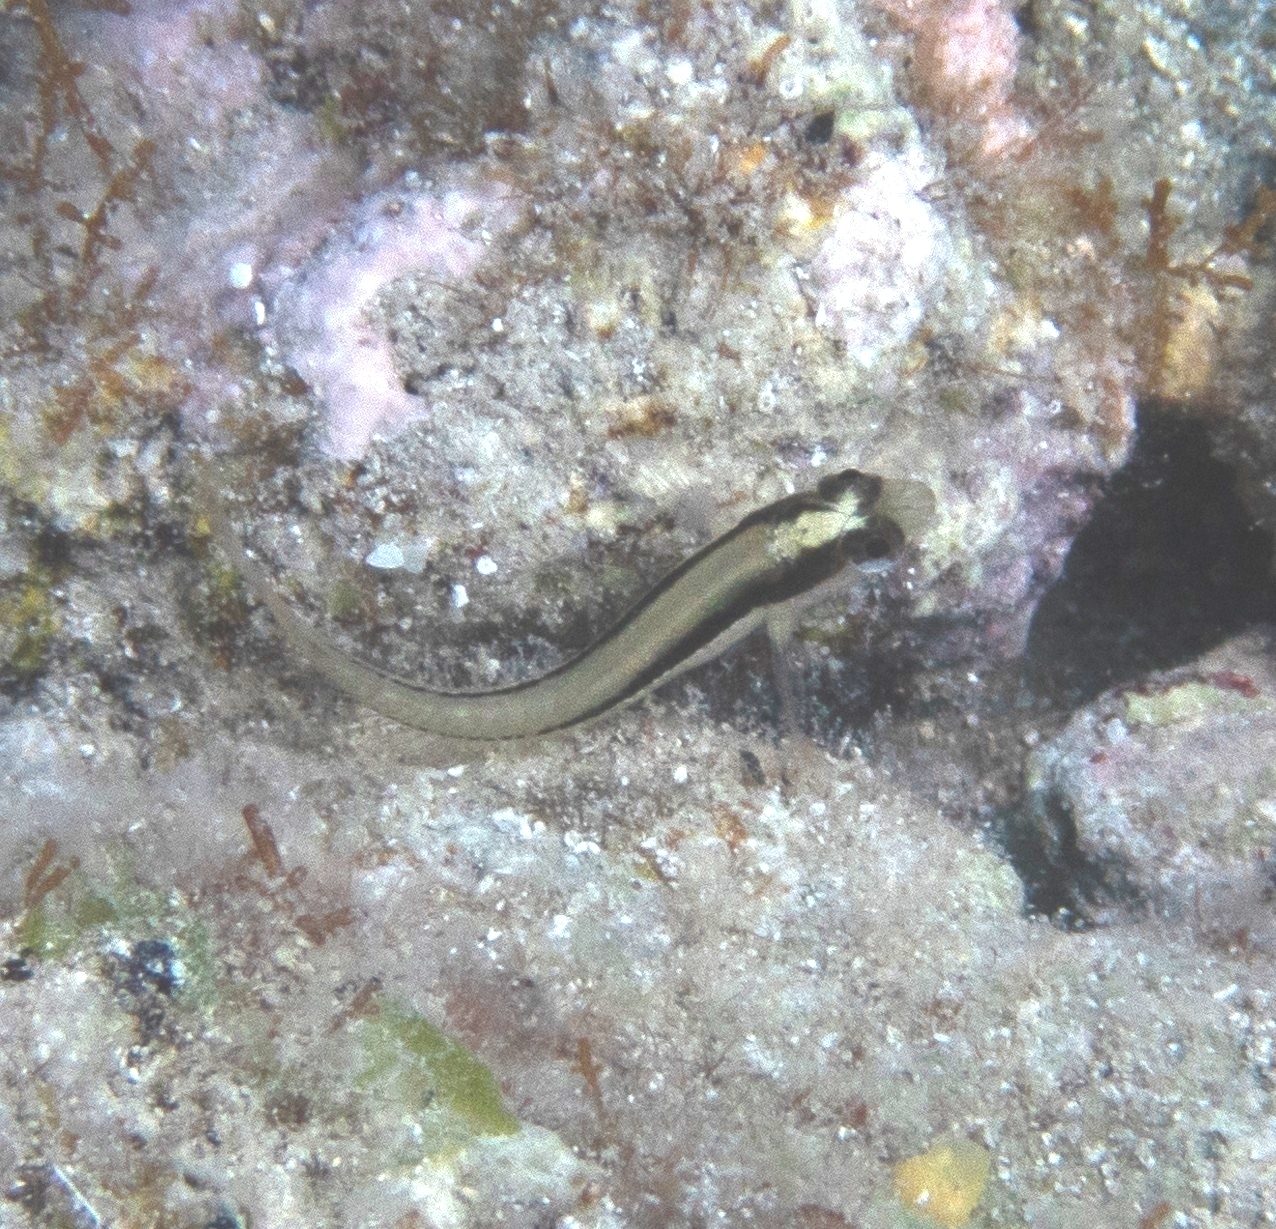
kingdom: Animalia
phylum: Chordata
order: Perciformes
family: Blenniidae
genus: Parablennius
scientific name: Parablennius rouxi
